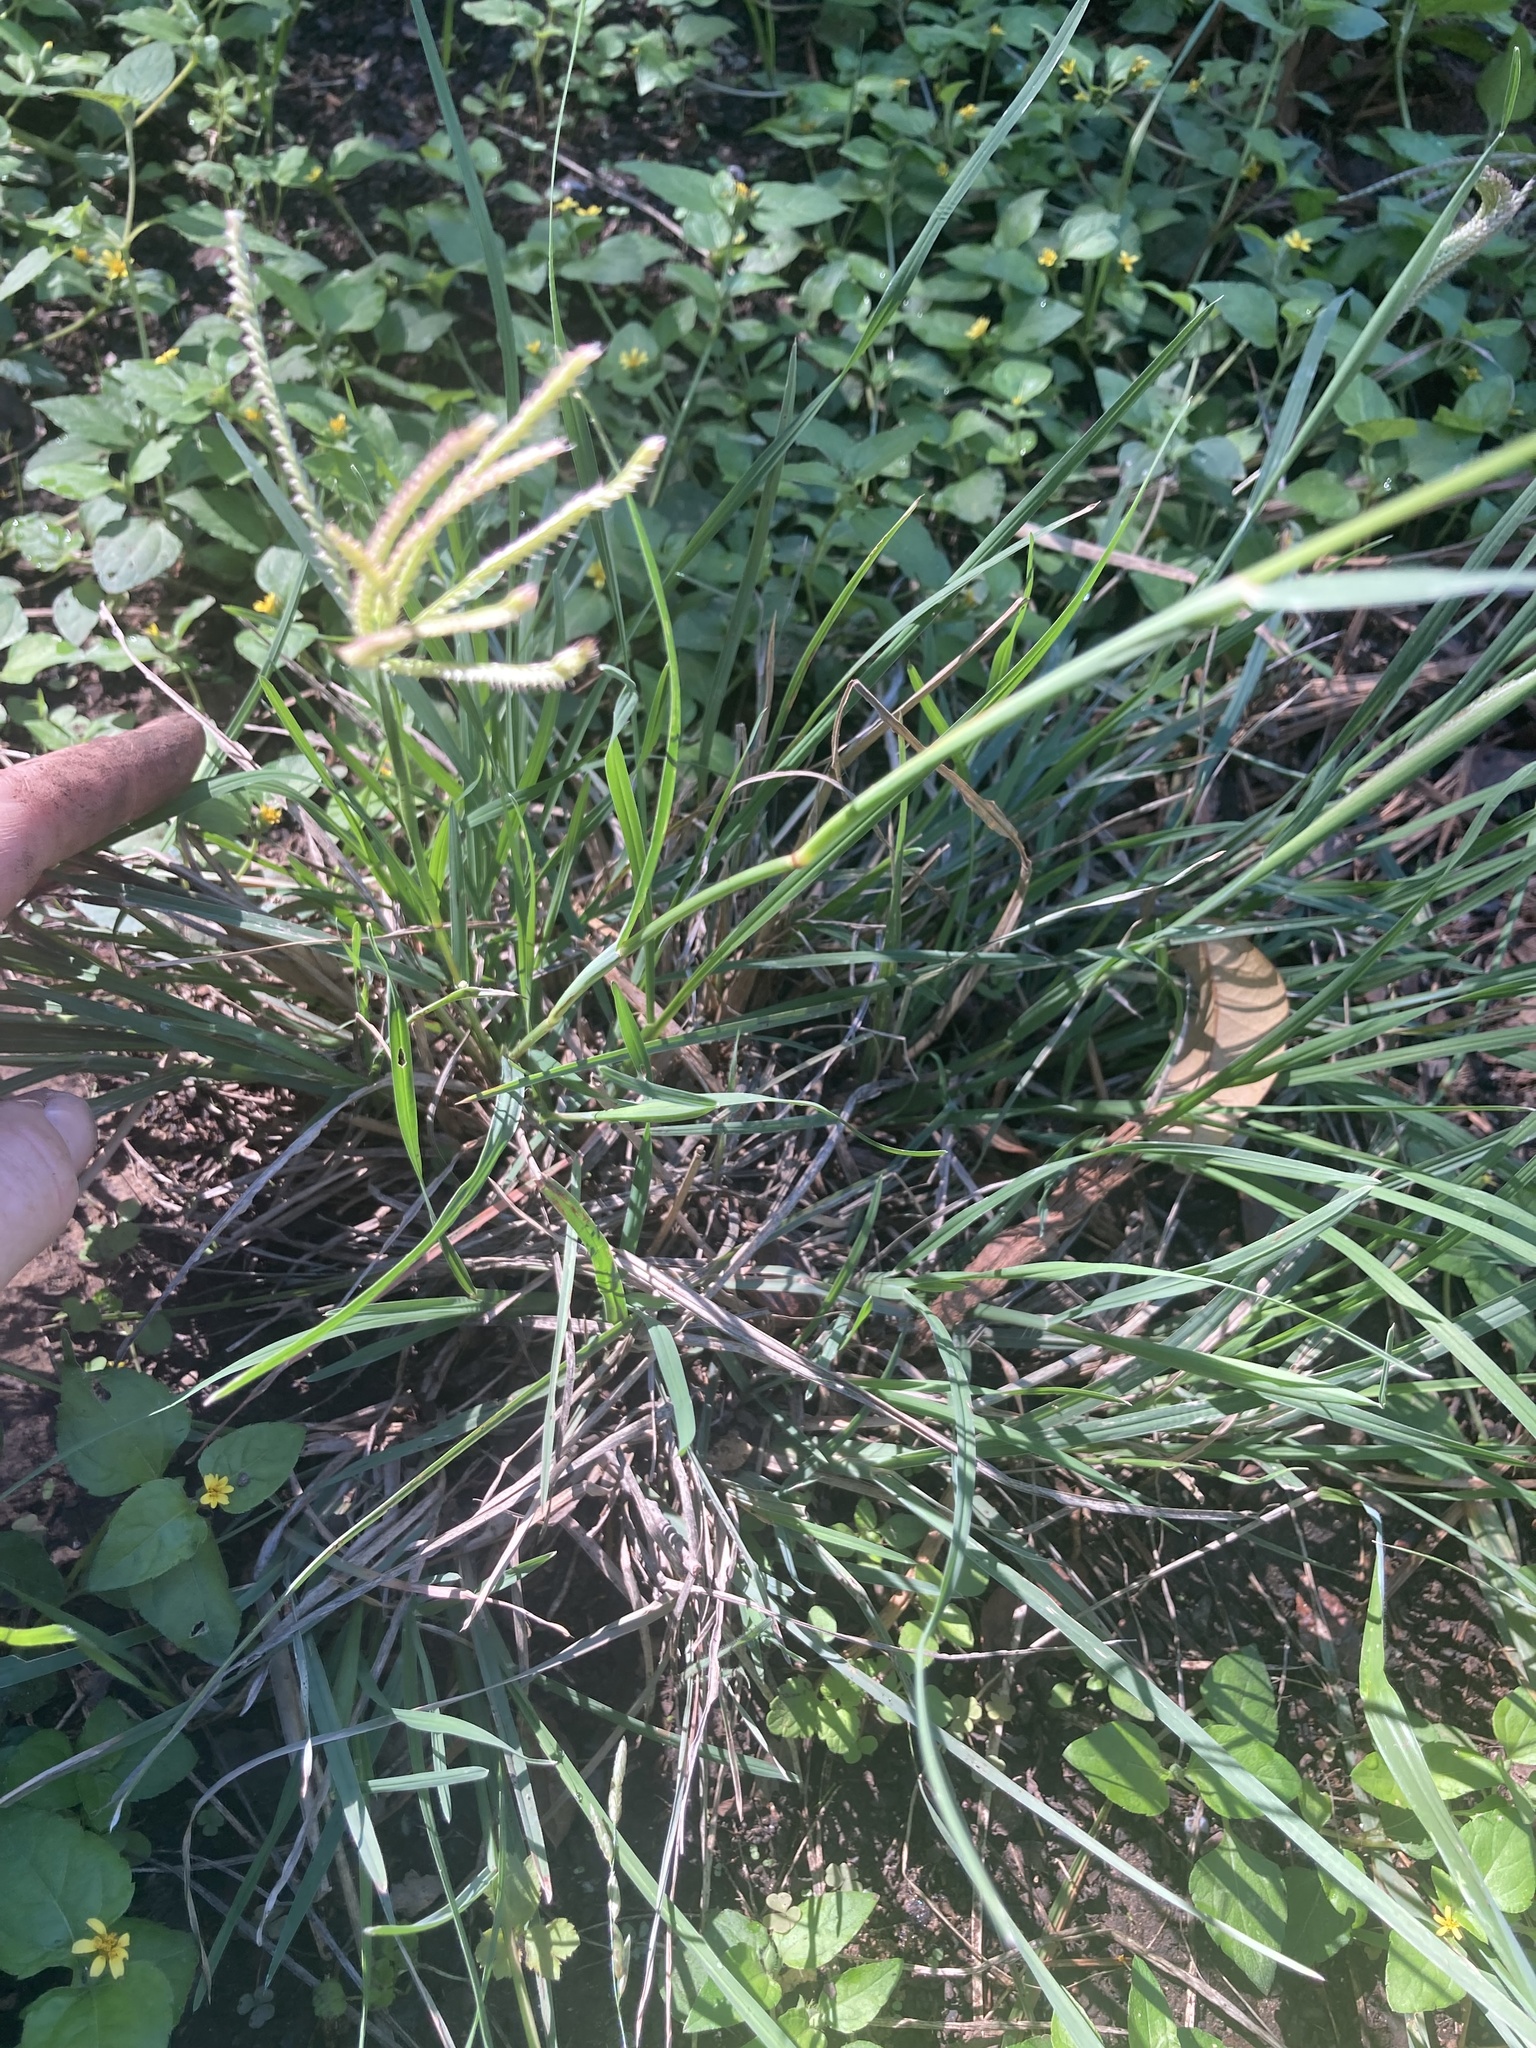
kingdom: Plantae
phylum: Tracheophyta
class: Liliopsida
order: Poales
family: Poaceae
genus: Chloris
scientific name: Chloris cucullata
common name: Hooded windmill grass
